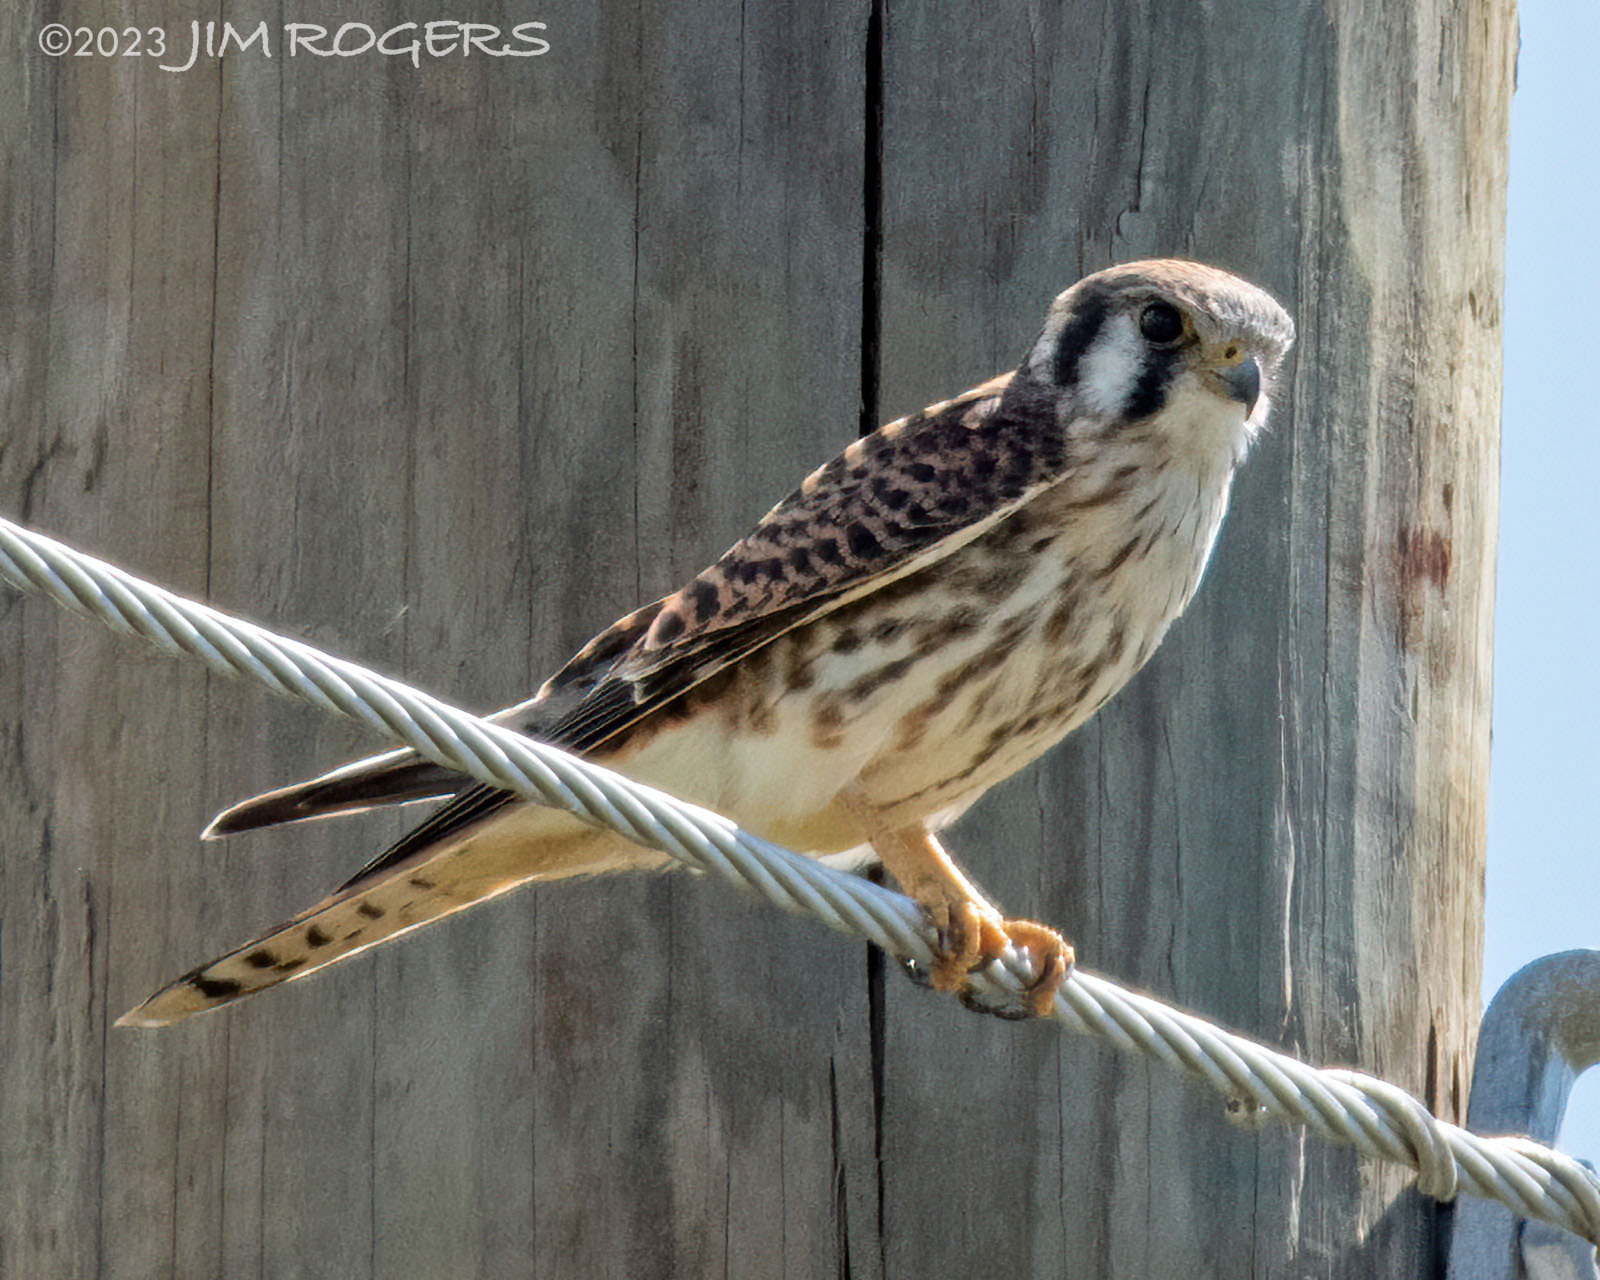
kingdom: Animalia
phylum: Chordata
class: Aves
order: Falconiformes
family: Falconidae
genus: Falco
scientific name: Falco sparverius
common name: American kestrel
